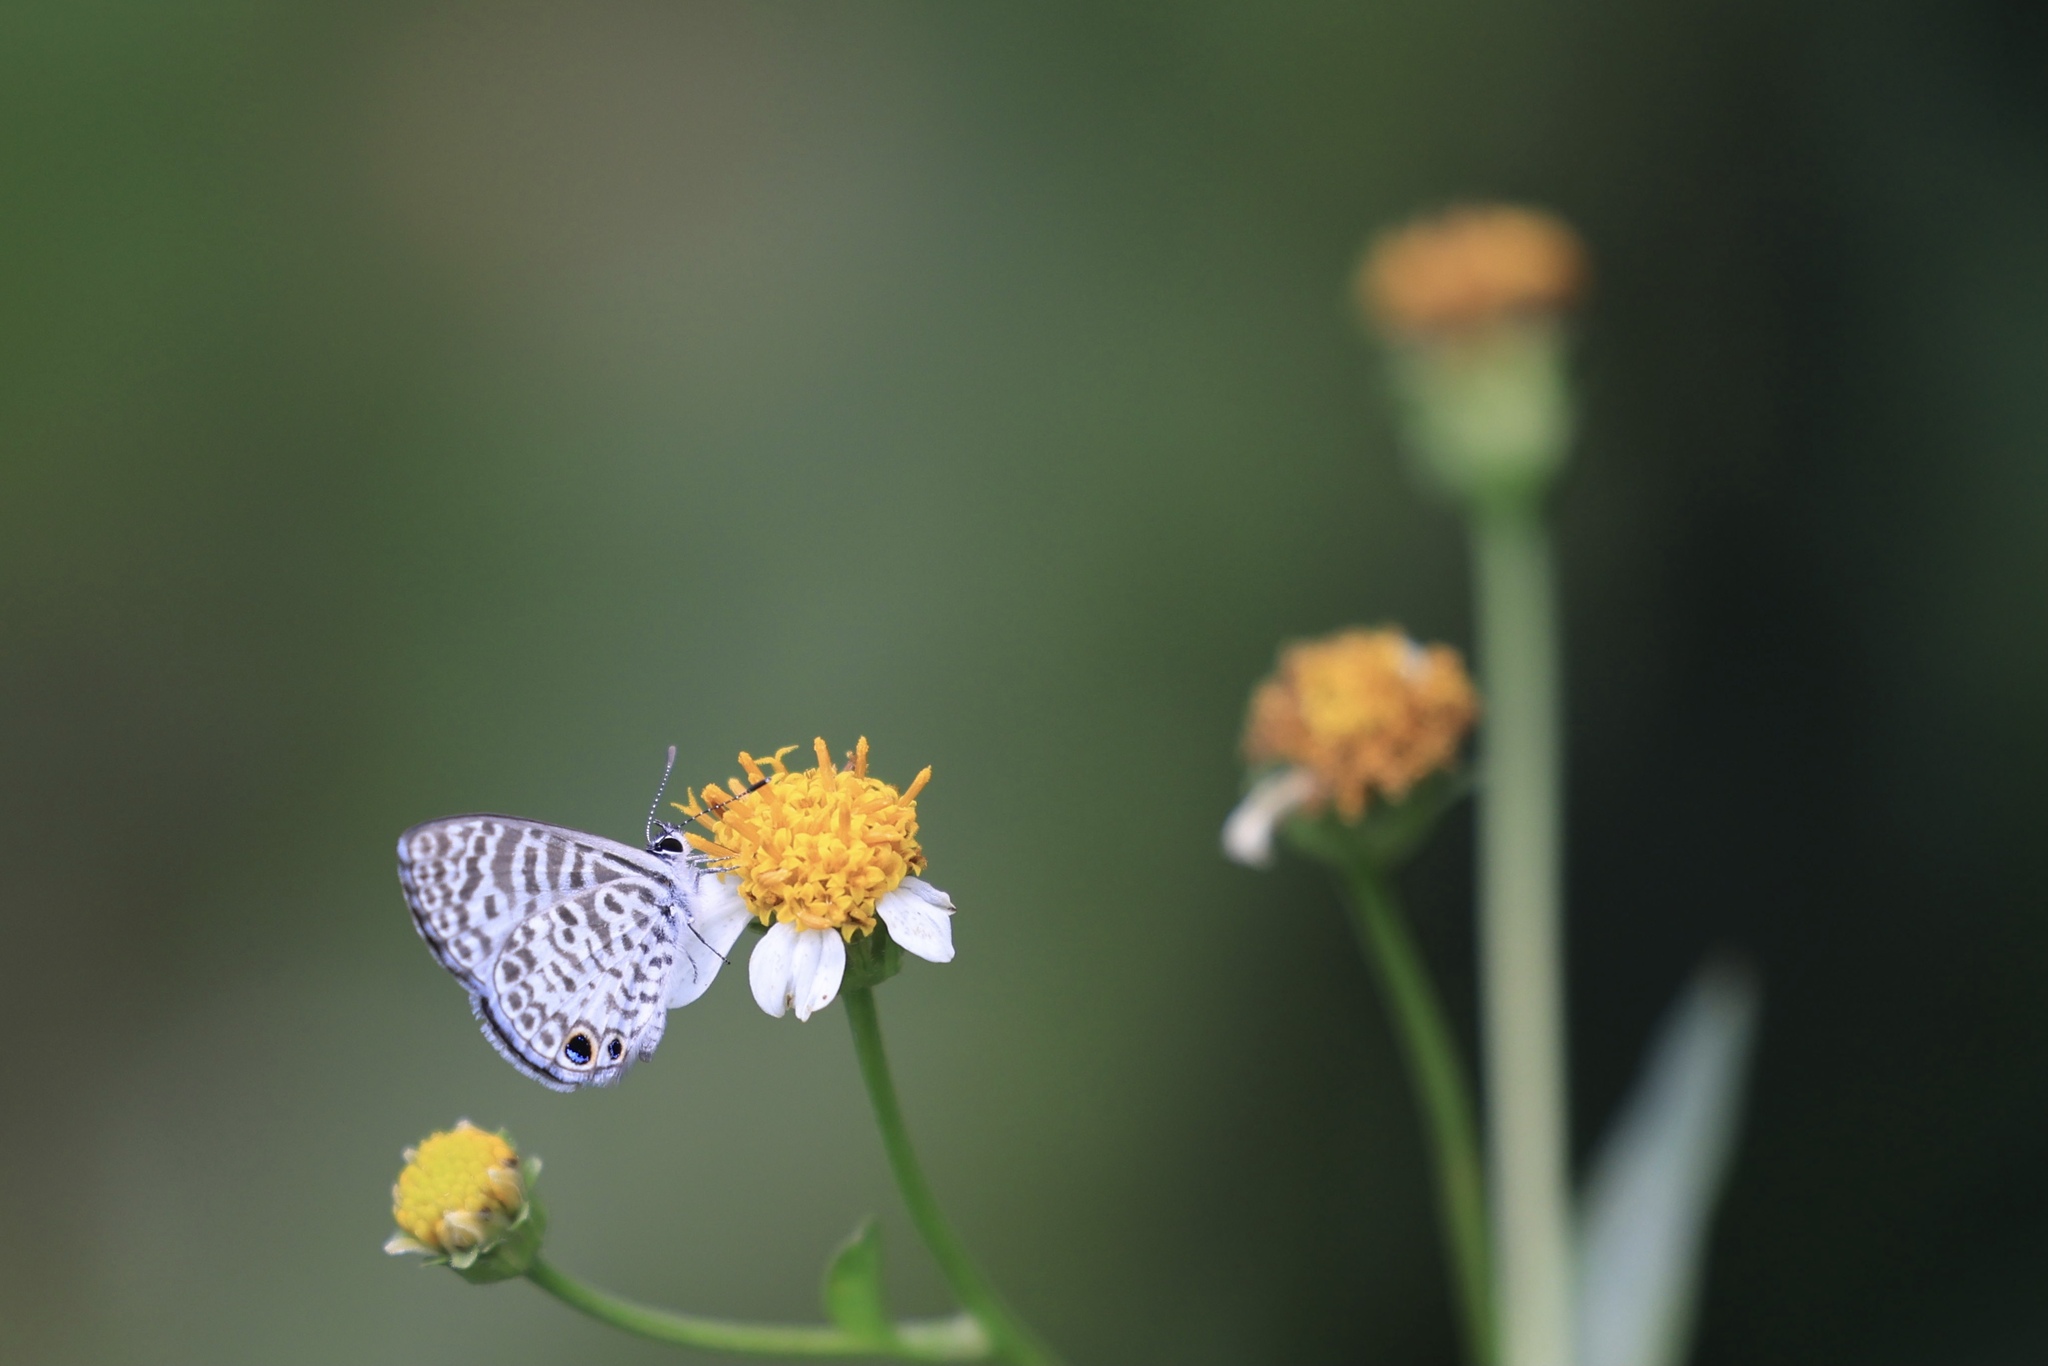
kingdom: Animalia
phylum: Arthropoda
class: Insecta
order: Lepidoptera
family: Lycaenidae
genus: Leptotes
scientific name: Leptotes cassius
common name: Cassius blue
